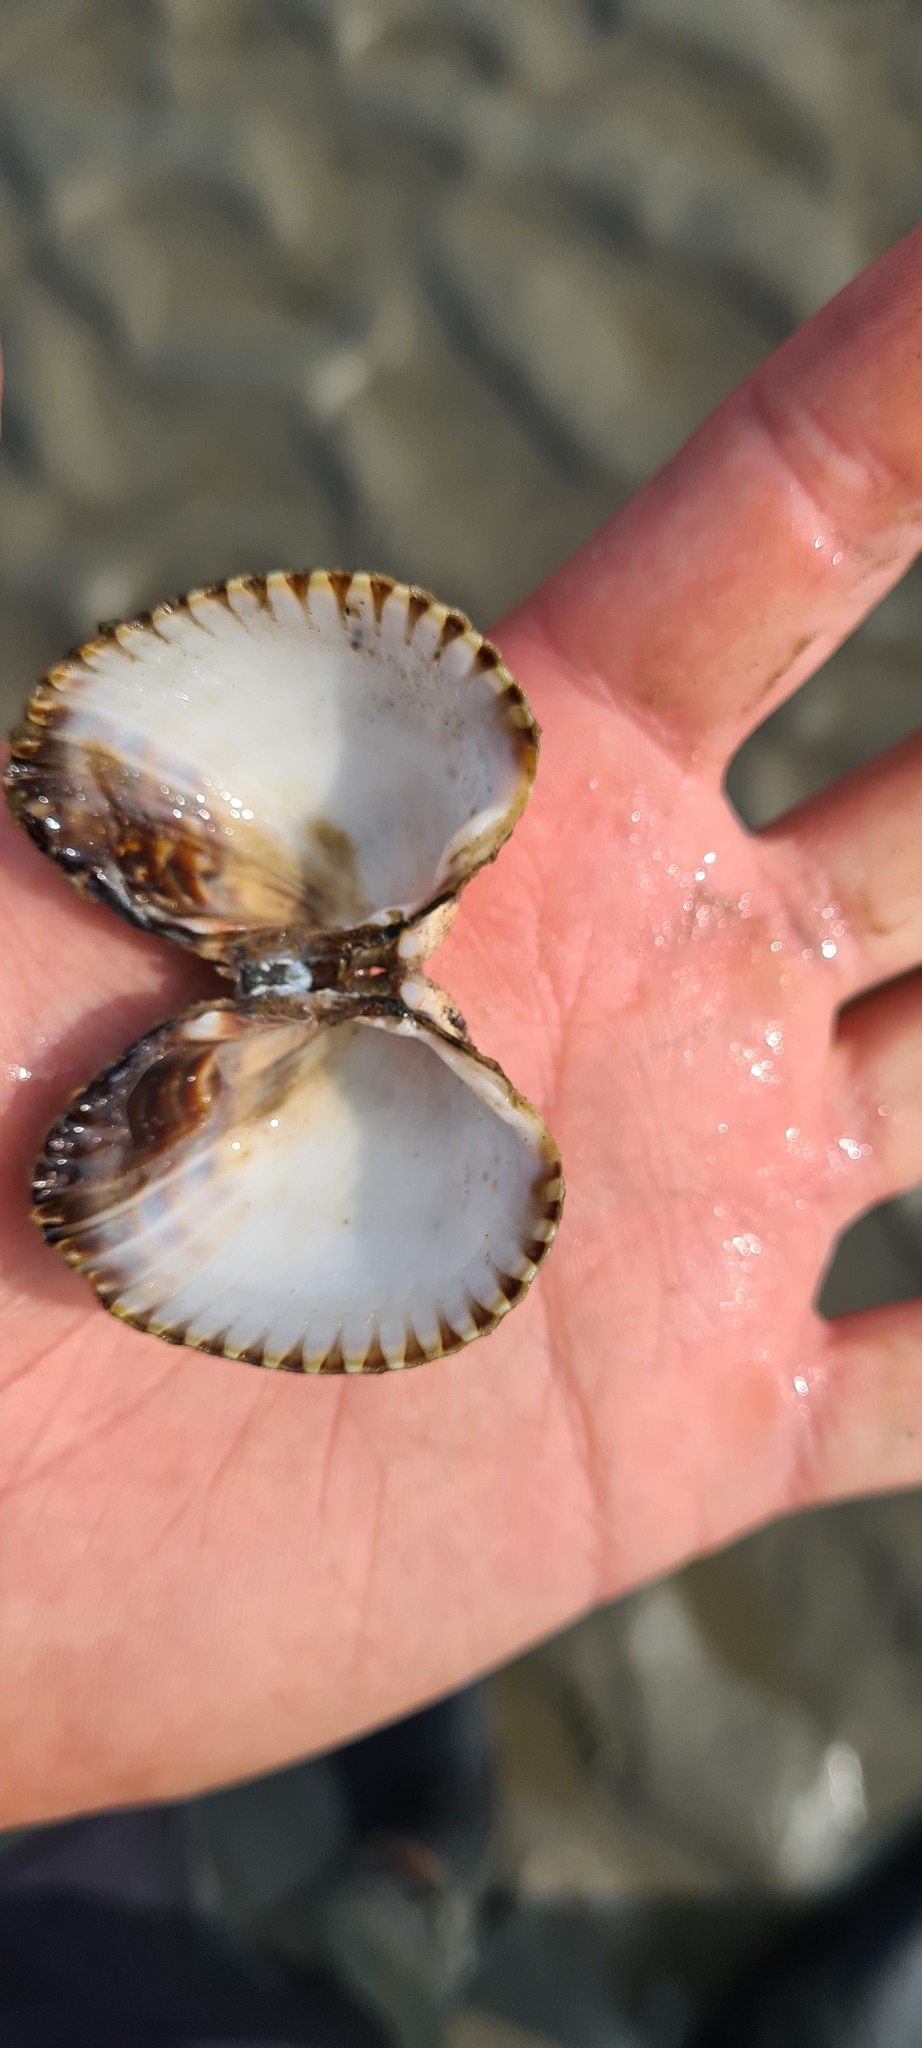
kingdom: Animalia
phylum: Mollusca
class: Bivalvia
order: Cardiida
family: Cardiidae
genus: Cerastoderma
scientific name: Cerastoderma edule
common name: Common cockle
